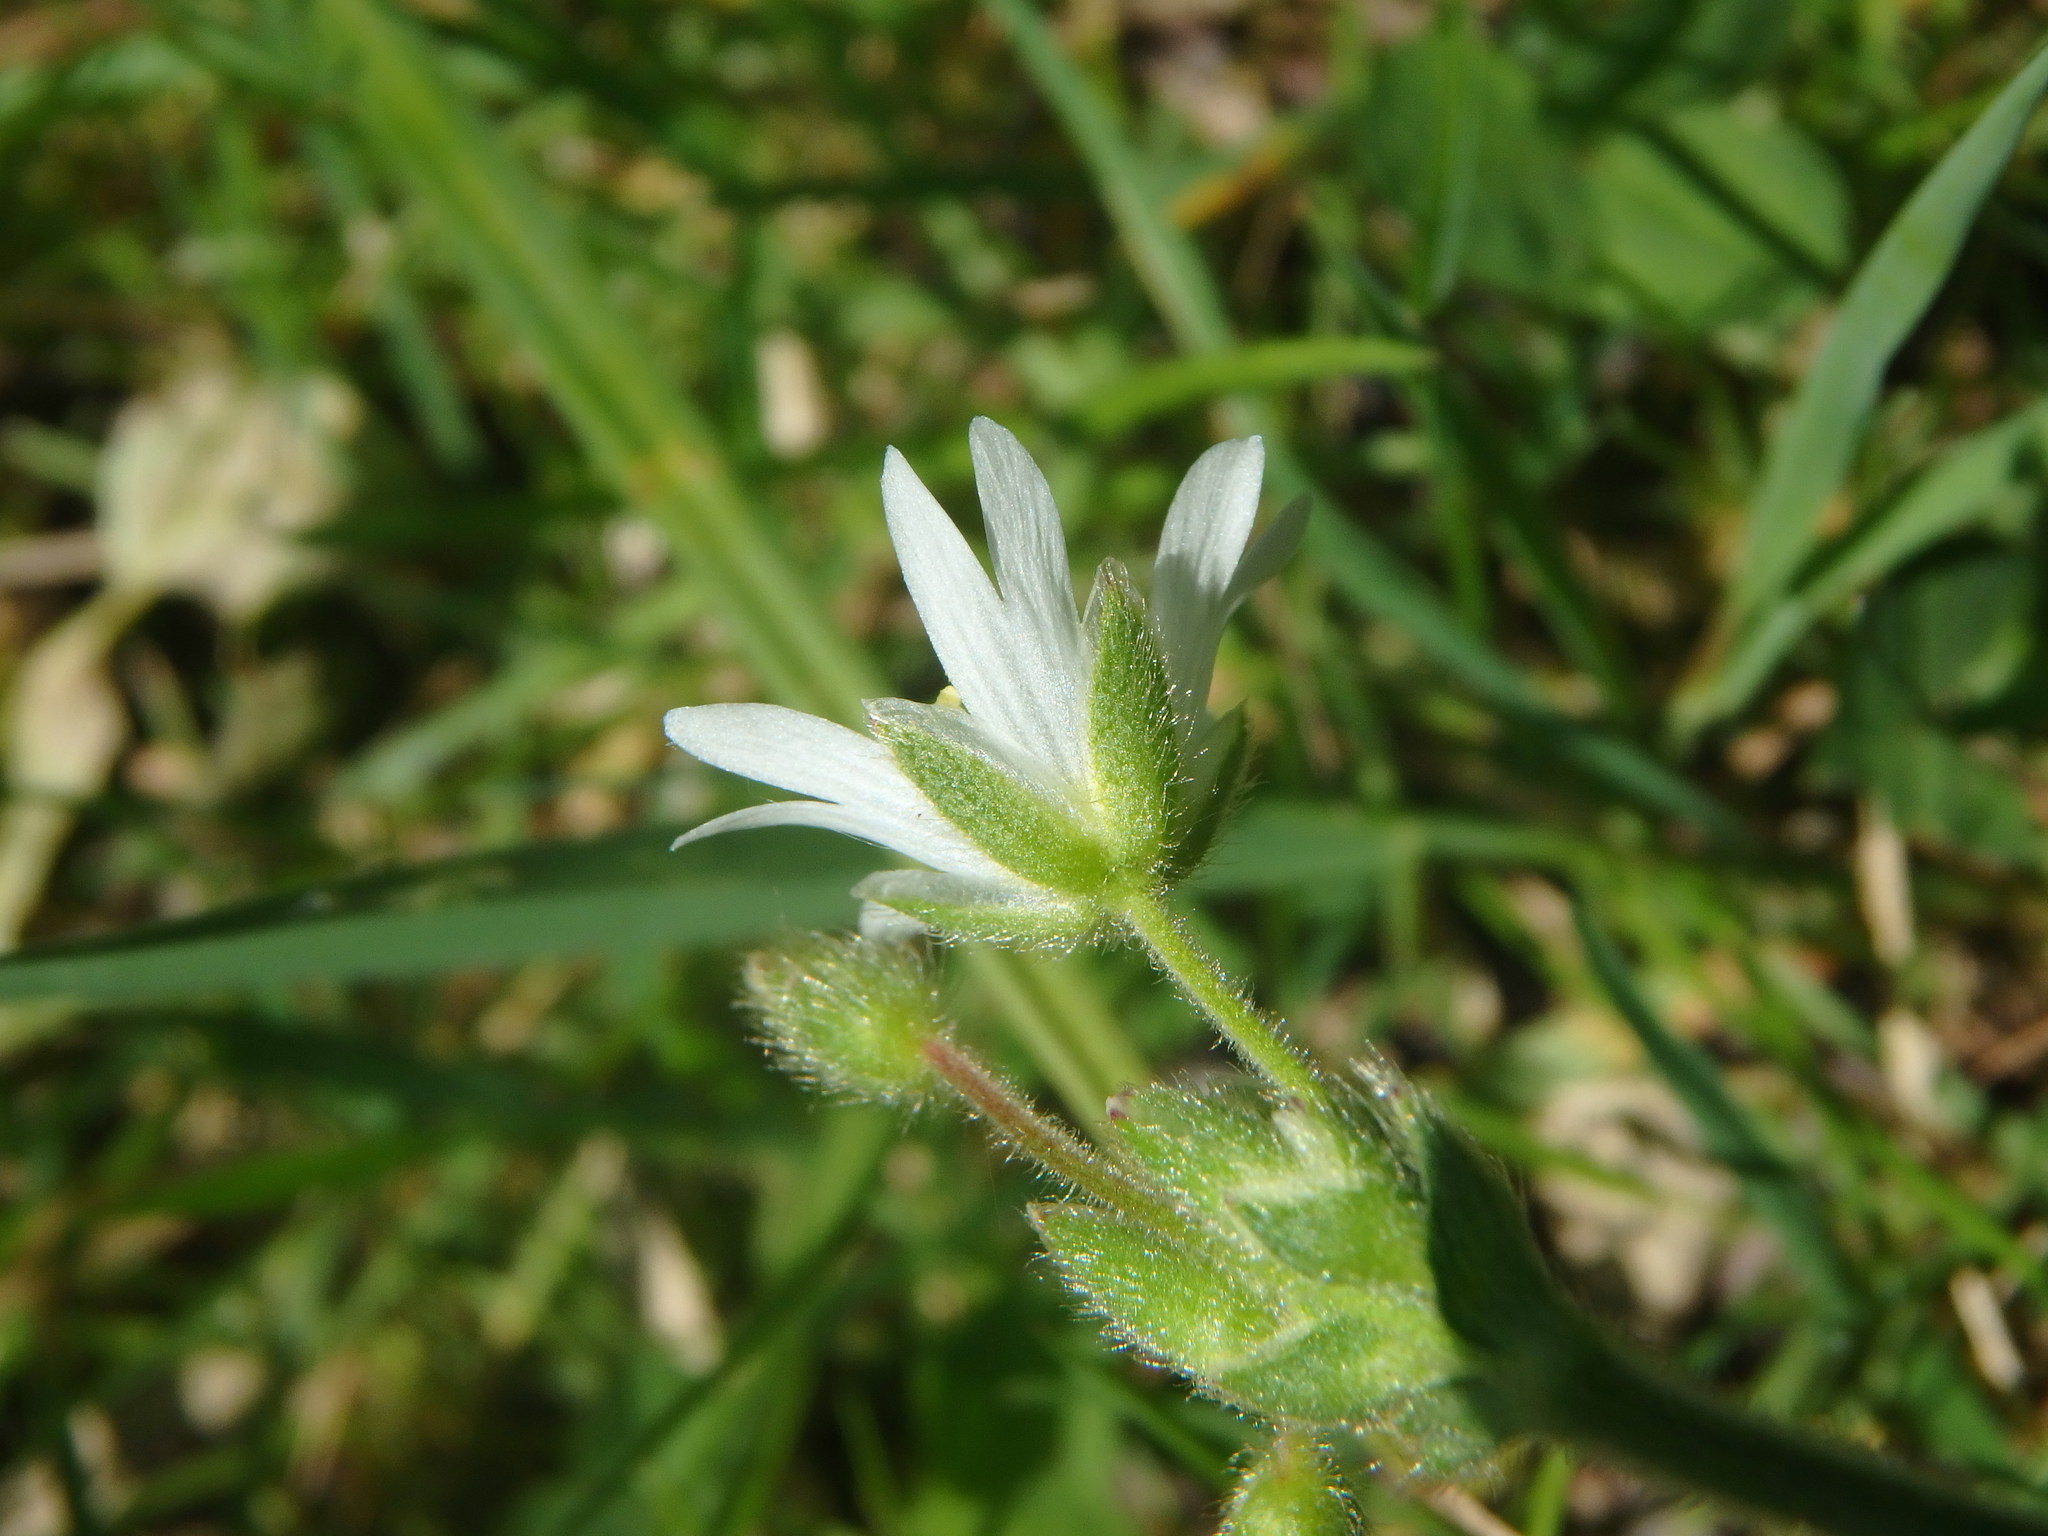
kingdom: Plantae
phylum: Tracheophyta
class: Magnoliopsida
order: Caryophyllales
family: Caryophyllaceae
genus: Cerastium
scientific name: Cerastium arvense
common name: Field mouse-ear
